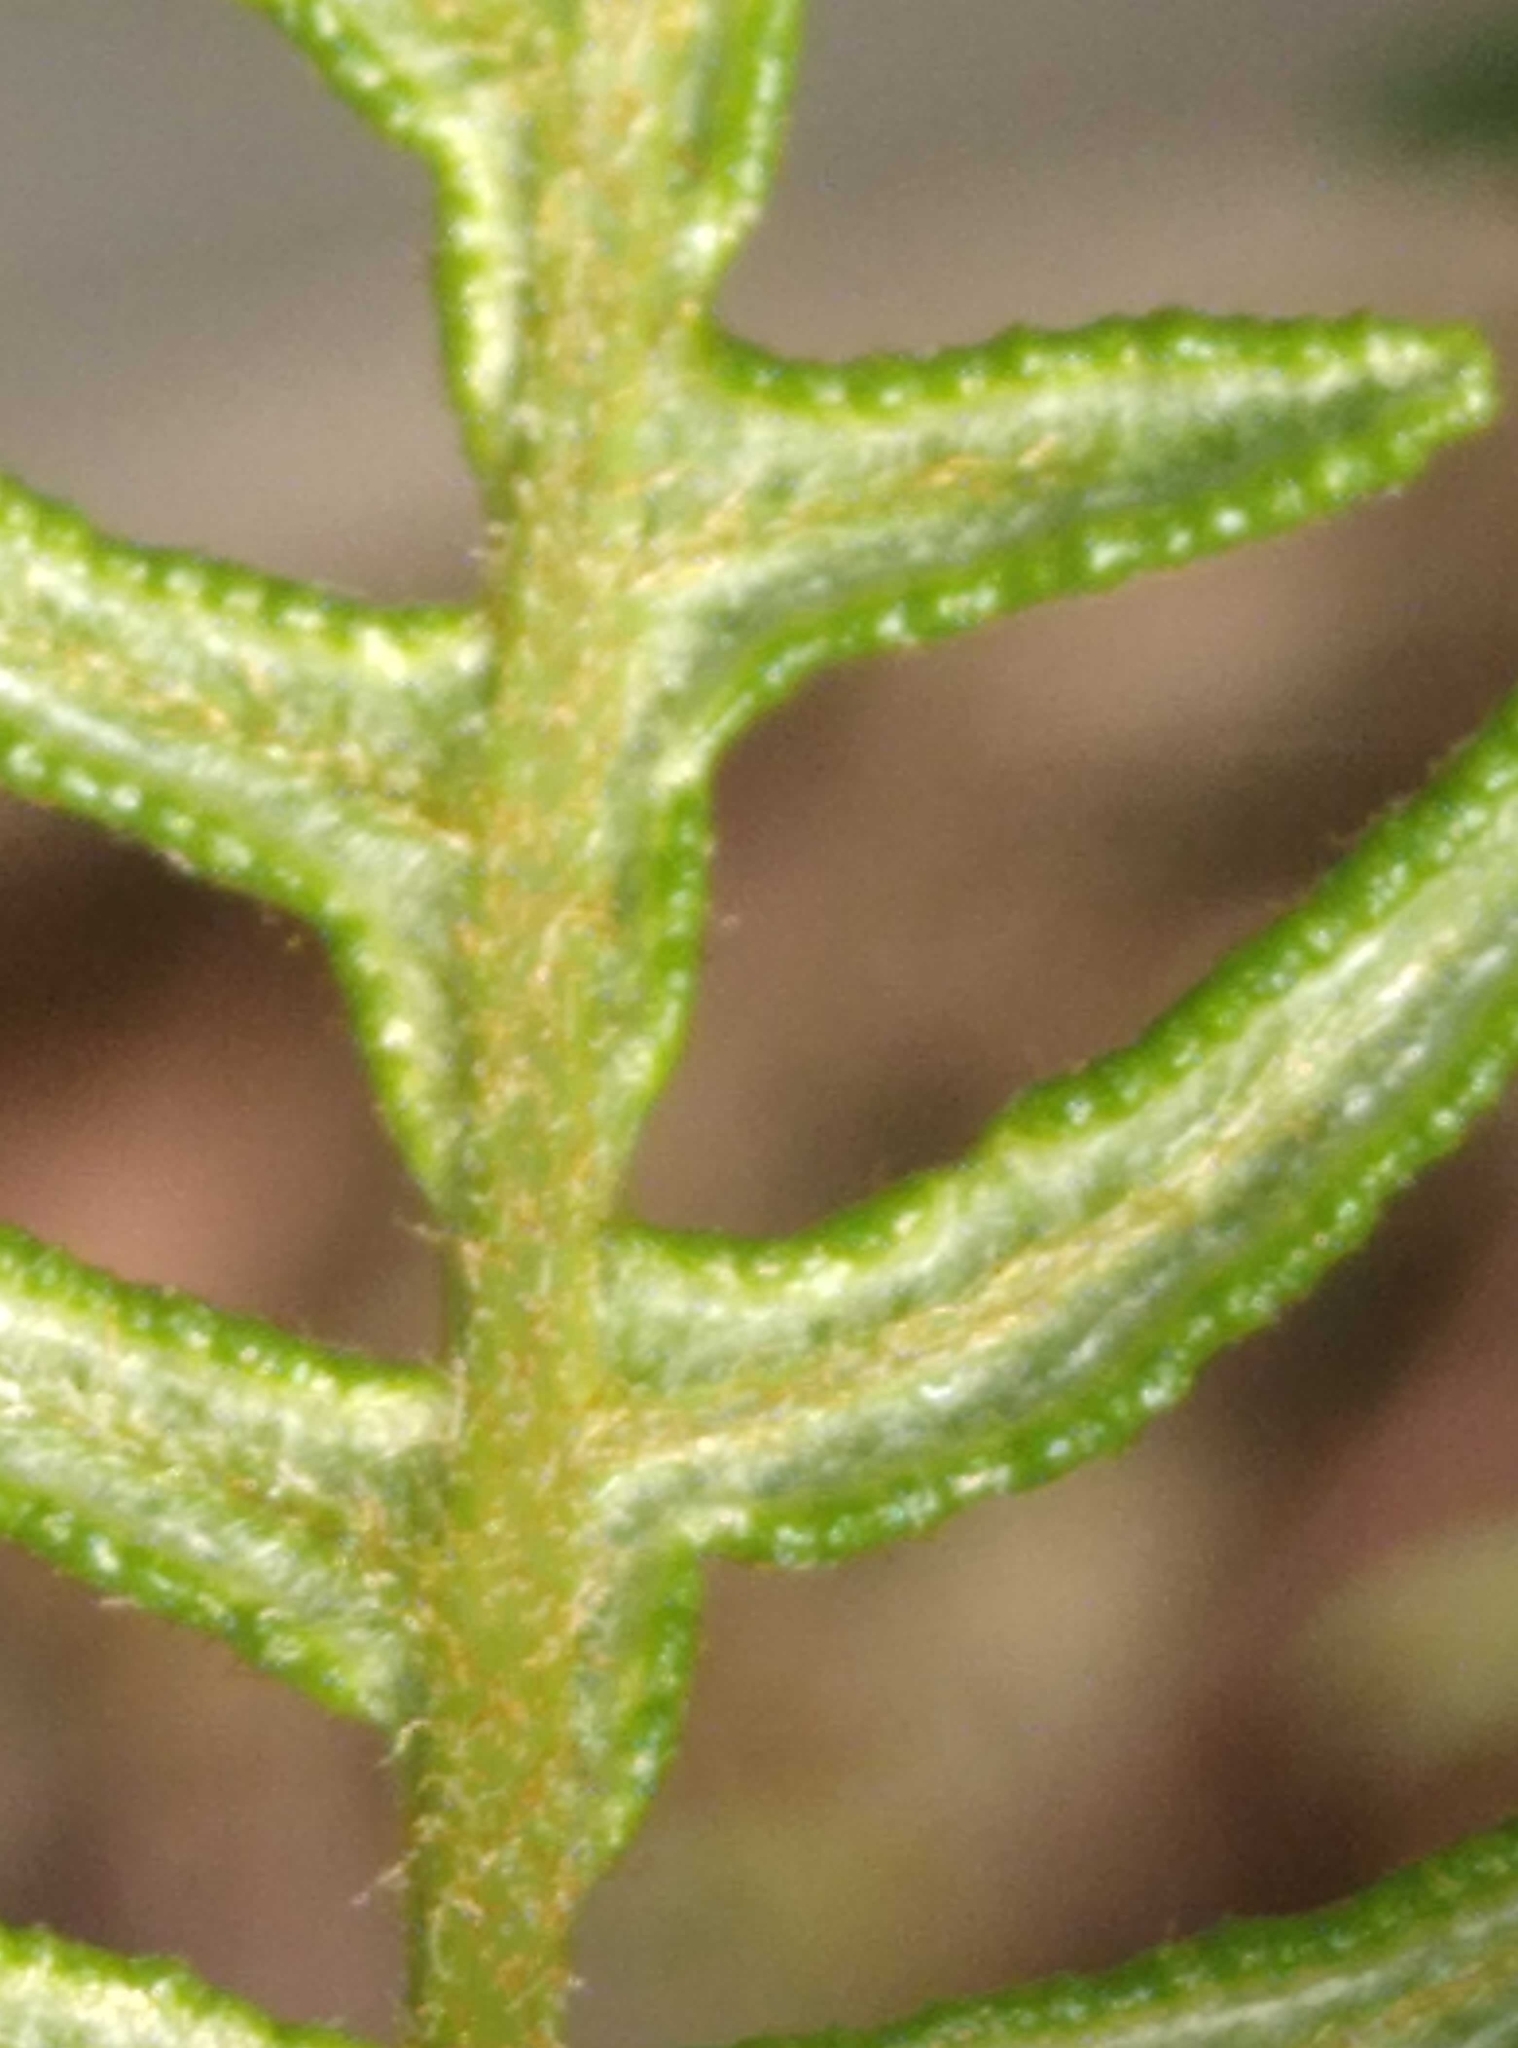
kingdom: Plantae
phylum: Tracheophyta
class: Polypodiopsida
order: Polypodiales
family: Dennstaedtiaceae
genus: Pteridium
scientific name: Pteridium esculentum
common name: Bracken fern
